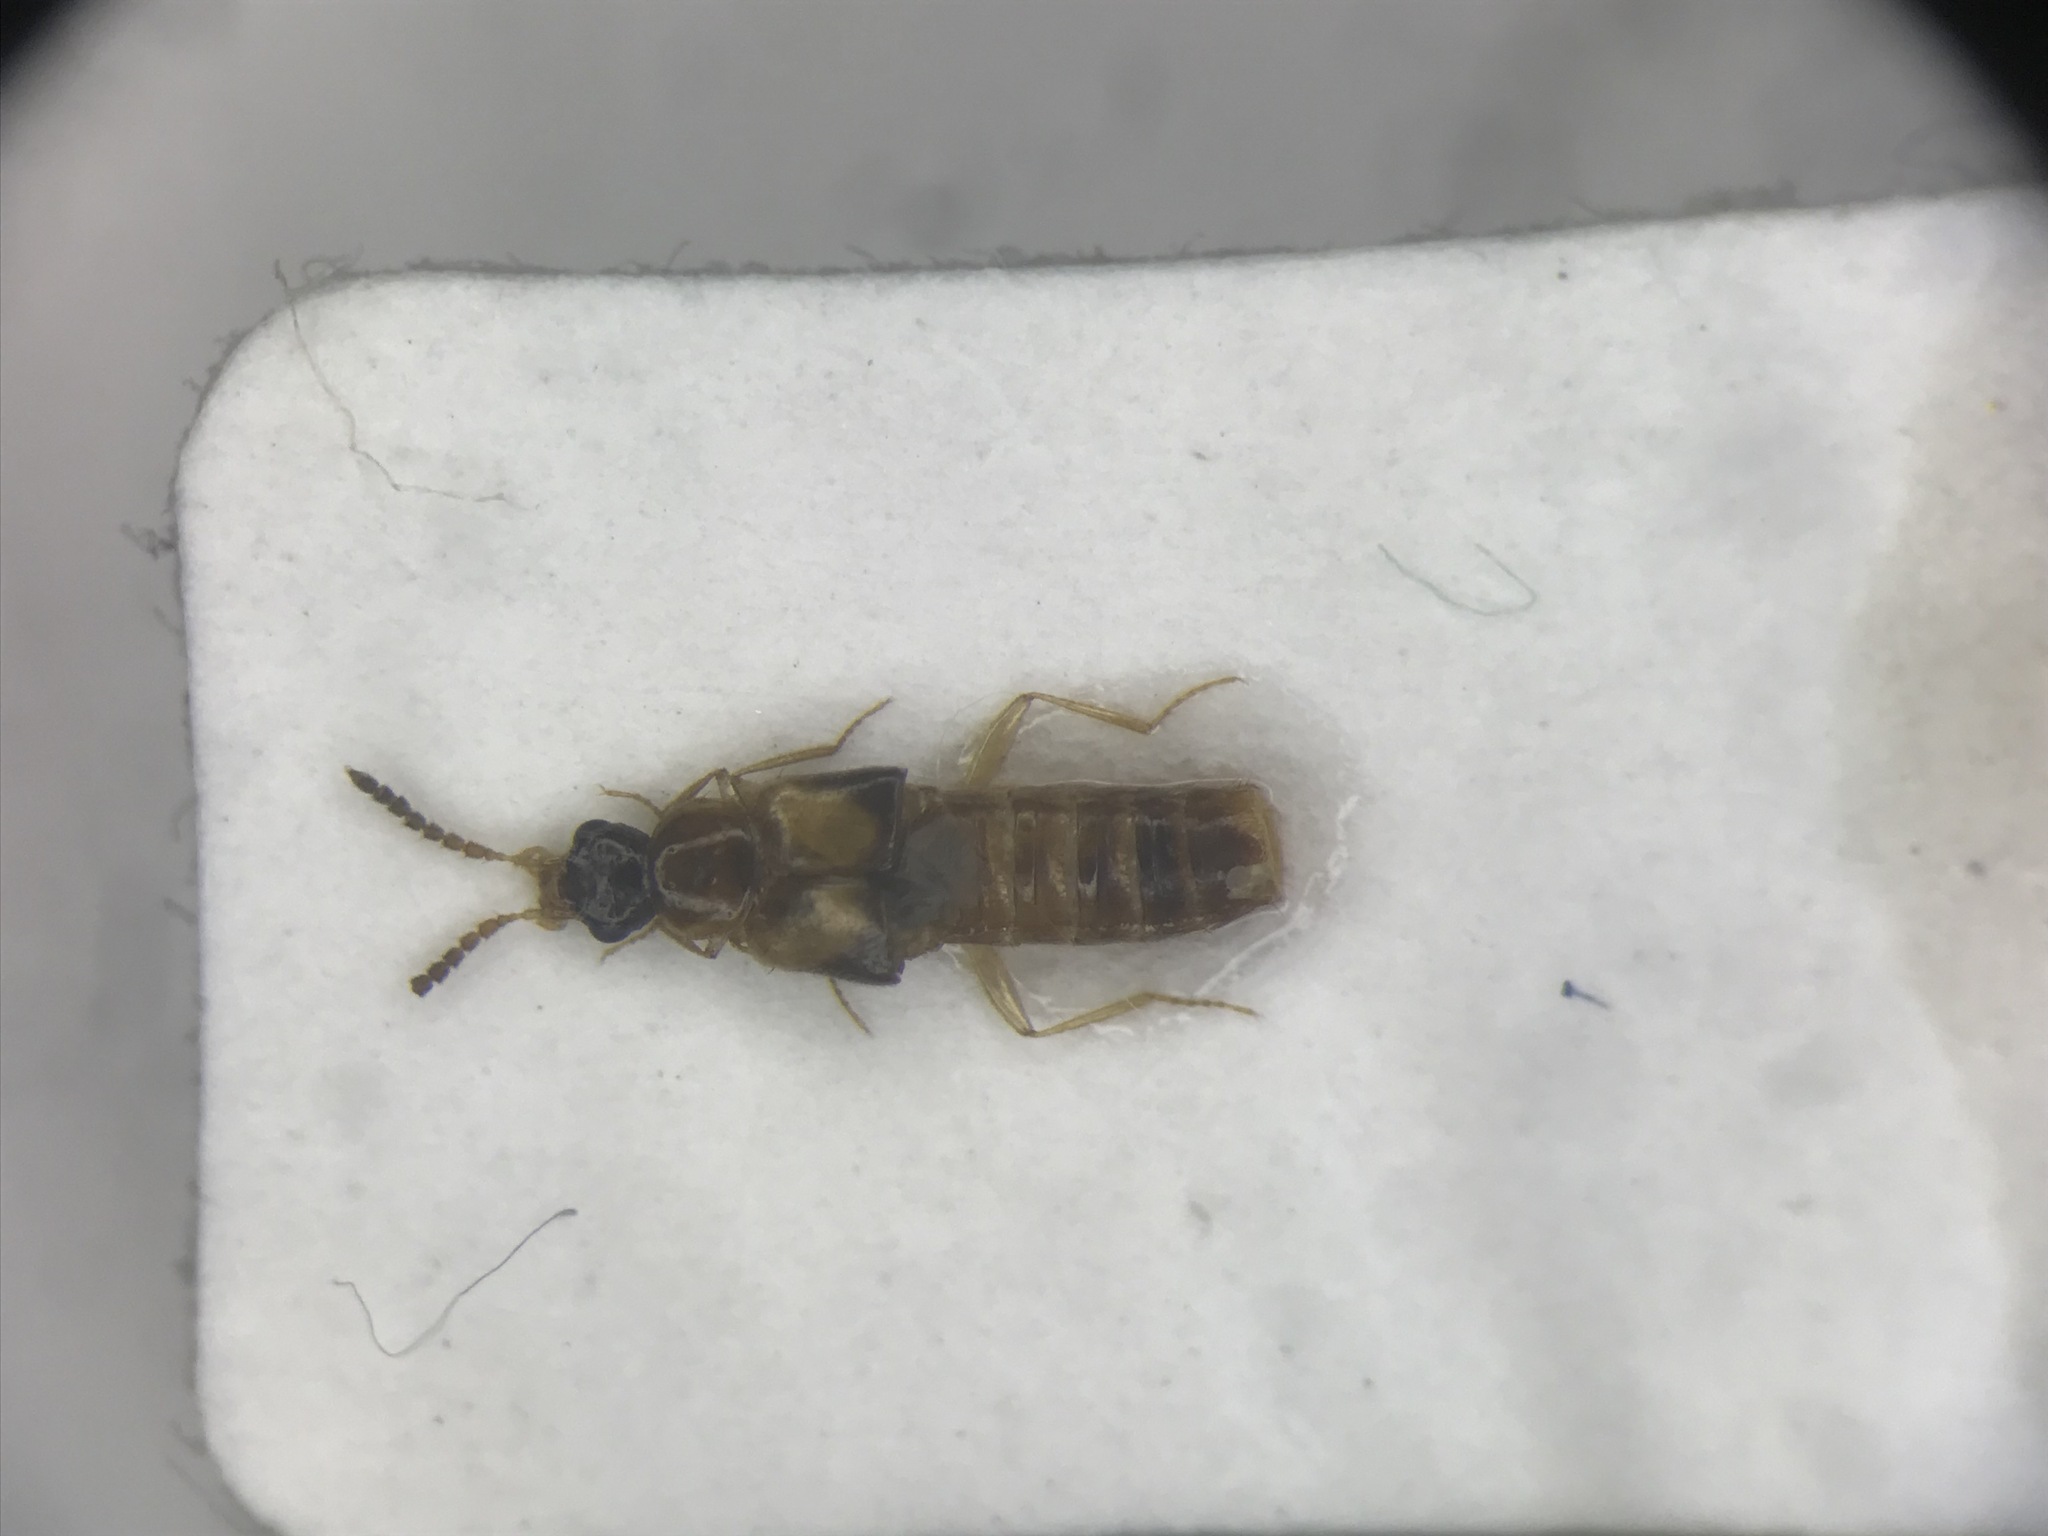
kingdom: Animalia
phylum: Arthropoda
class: Insecta
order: Coleoptera
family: Staphylinidae
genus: Gyrophaena
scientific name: Gyrophaena insolens
